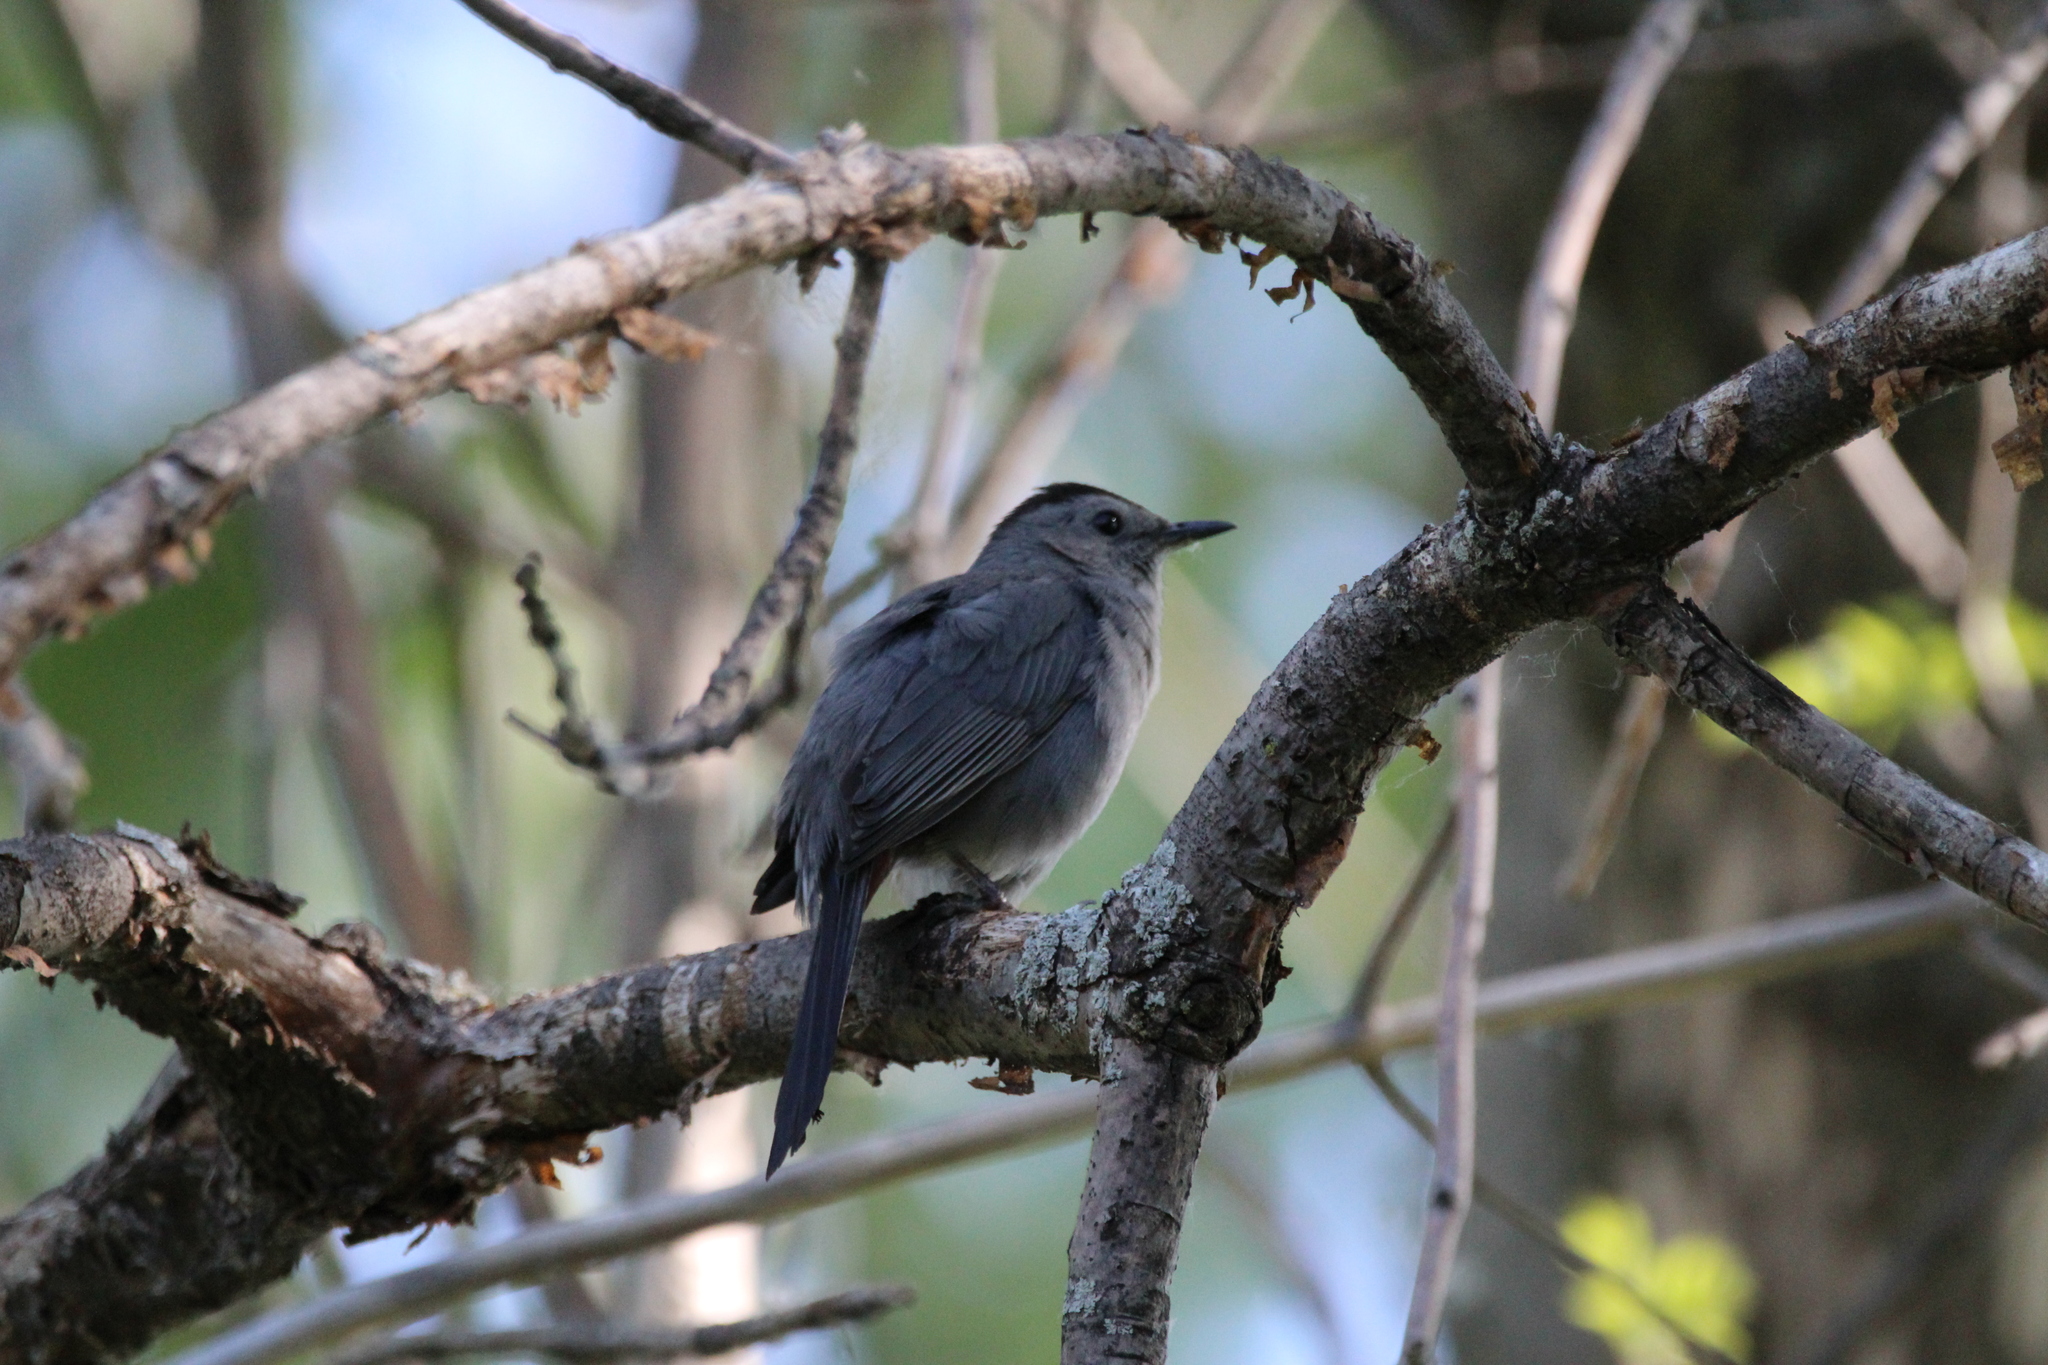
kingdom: Animalia
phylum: Chordata
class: Aves
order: Passeriformes
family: Mimidae
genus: Dumetella
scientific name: Dumetella carolinensis
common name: Gray catbird
